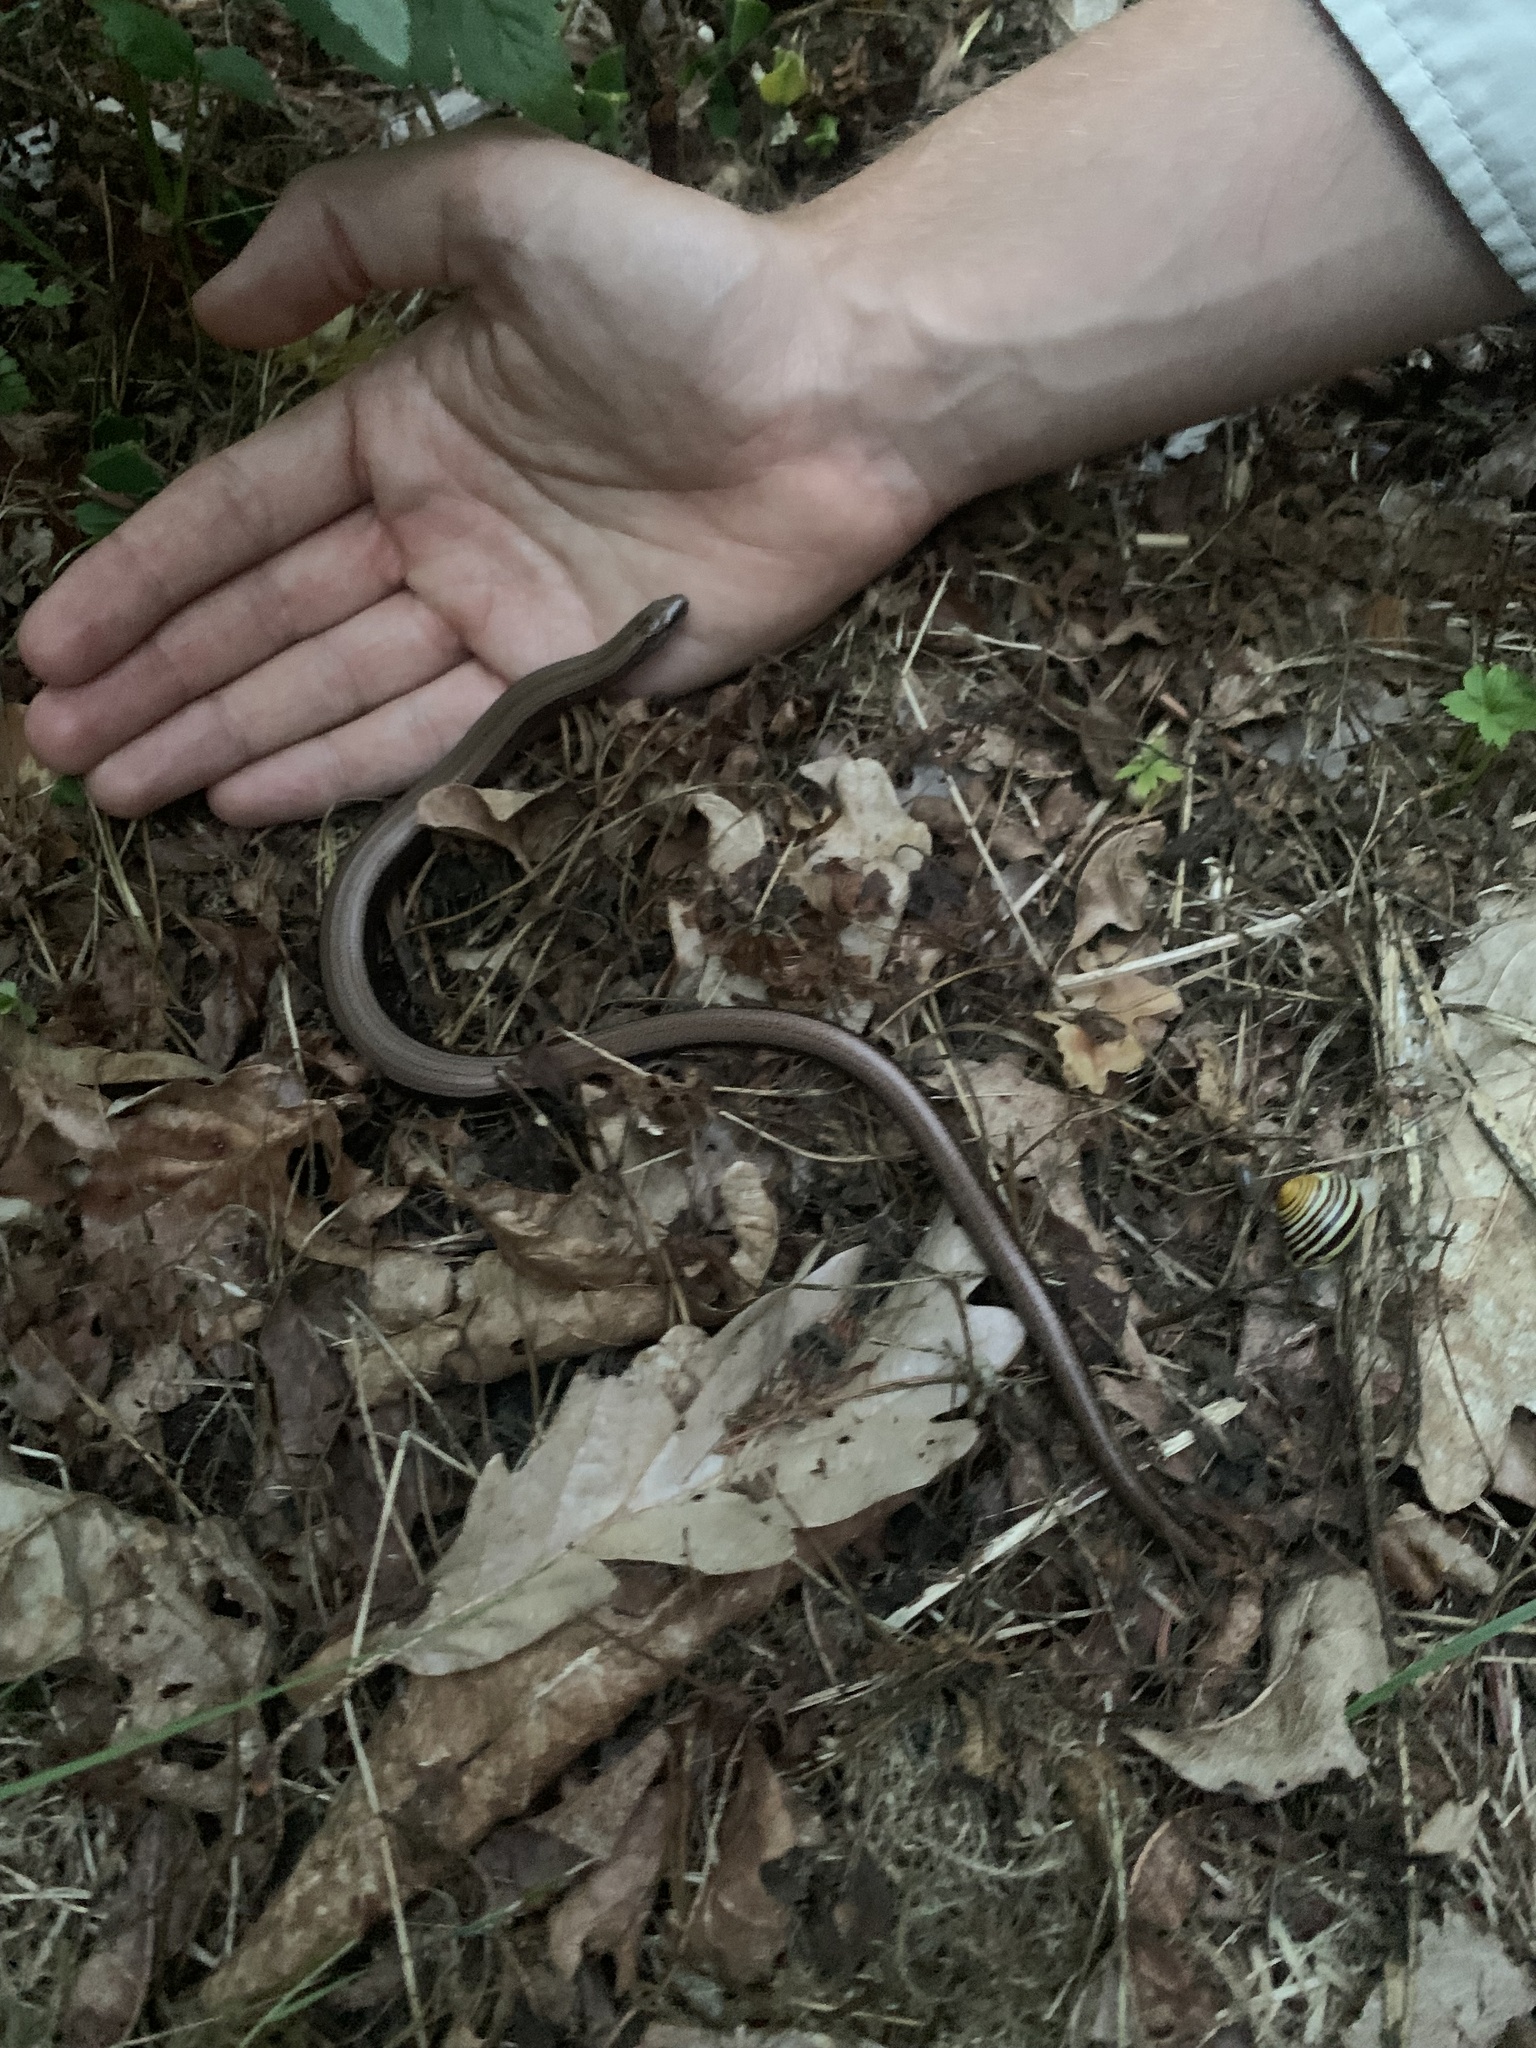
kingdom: Animalia
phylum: Chordata
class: Squamata
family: Anguidae
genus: Anguis
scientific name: Anguis fragilis
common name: Slow worm
